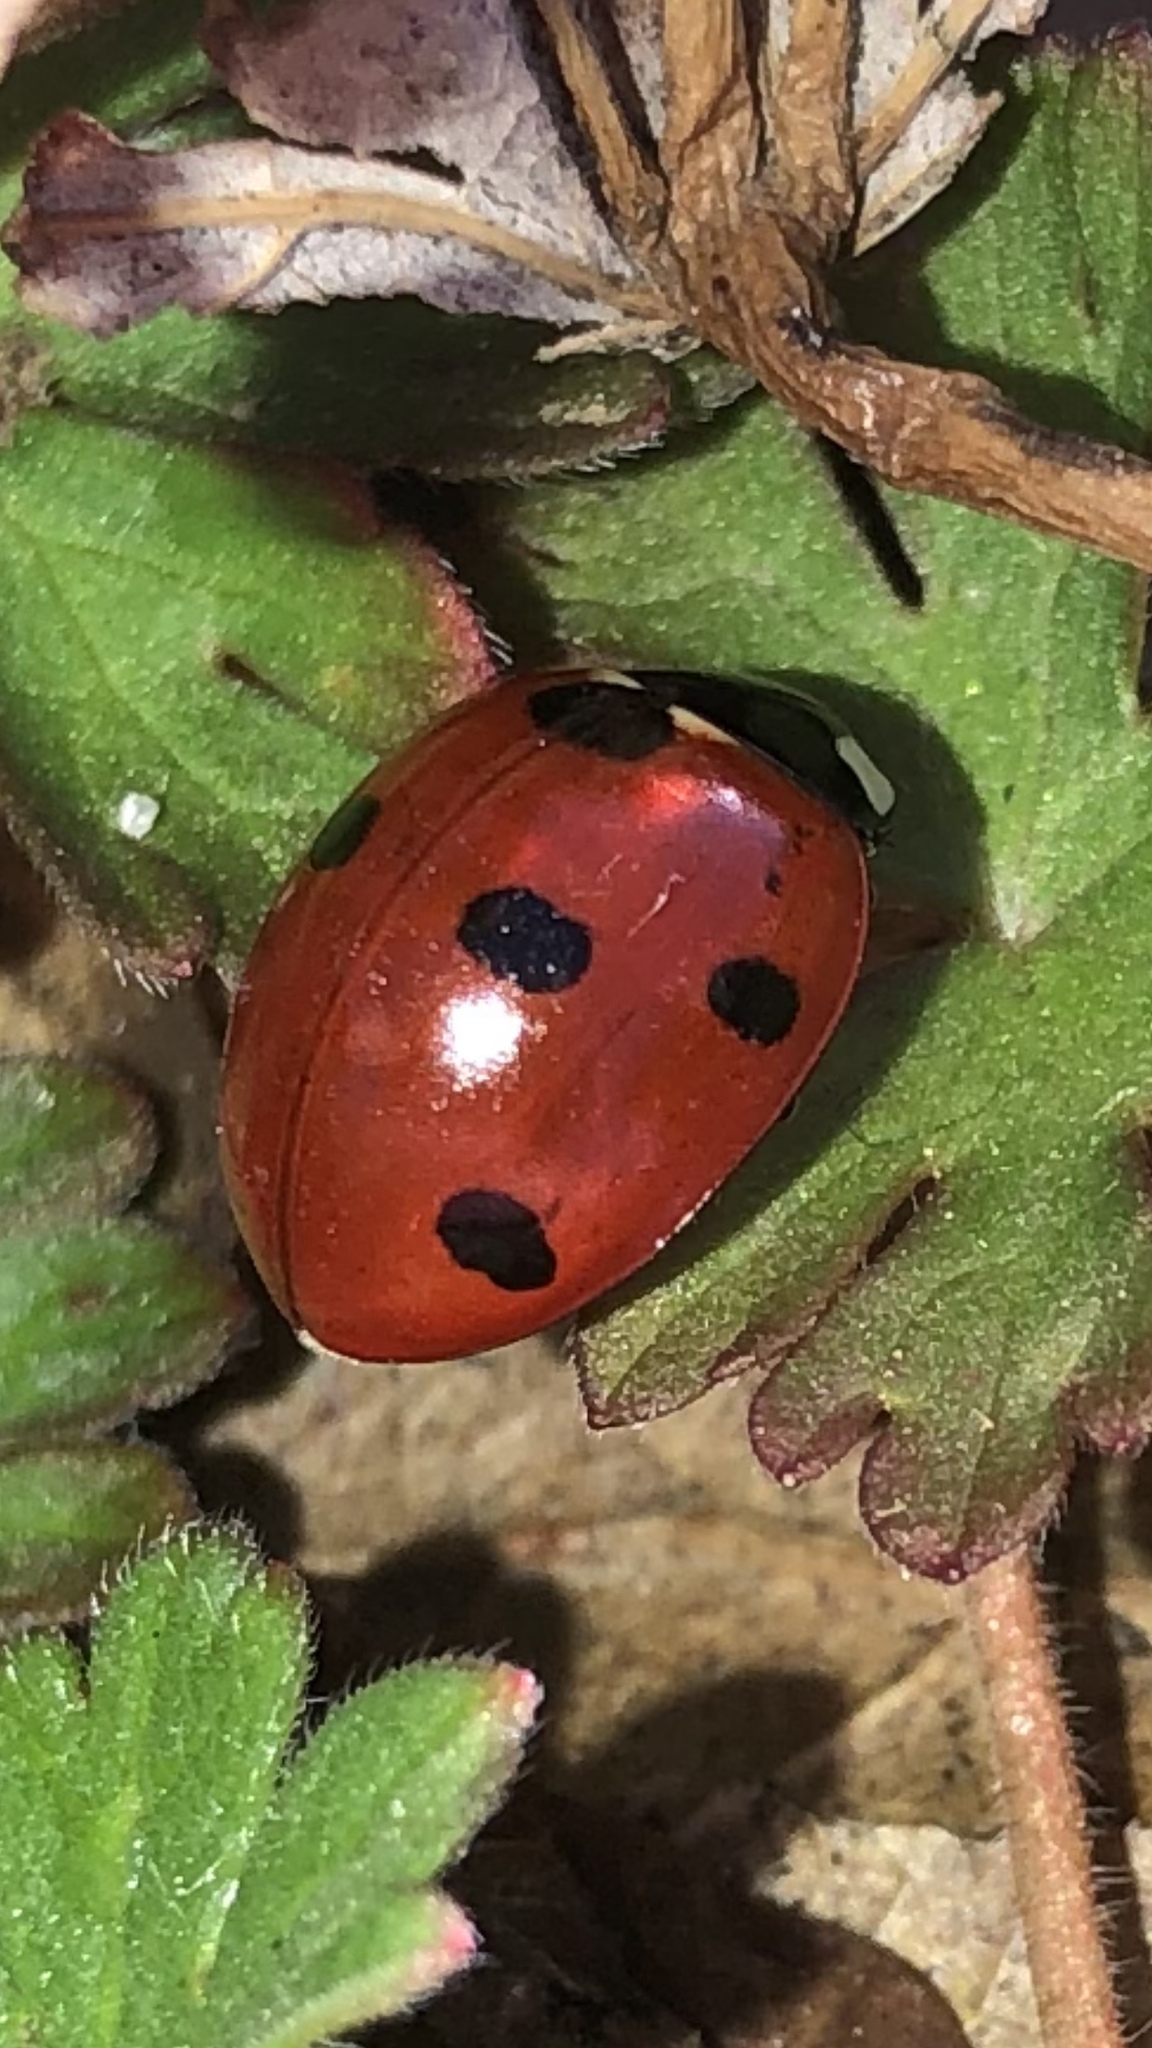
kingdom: Animalia
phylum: Arthropoda
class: Insecta
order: Coleoptera
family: Coccinellidae
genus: Coccinella
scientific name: Coccinella septempunctata
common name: Sevenspotted lady beetle
